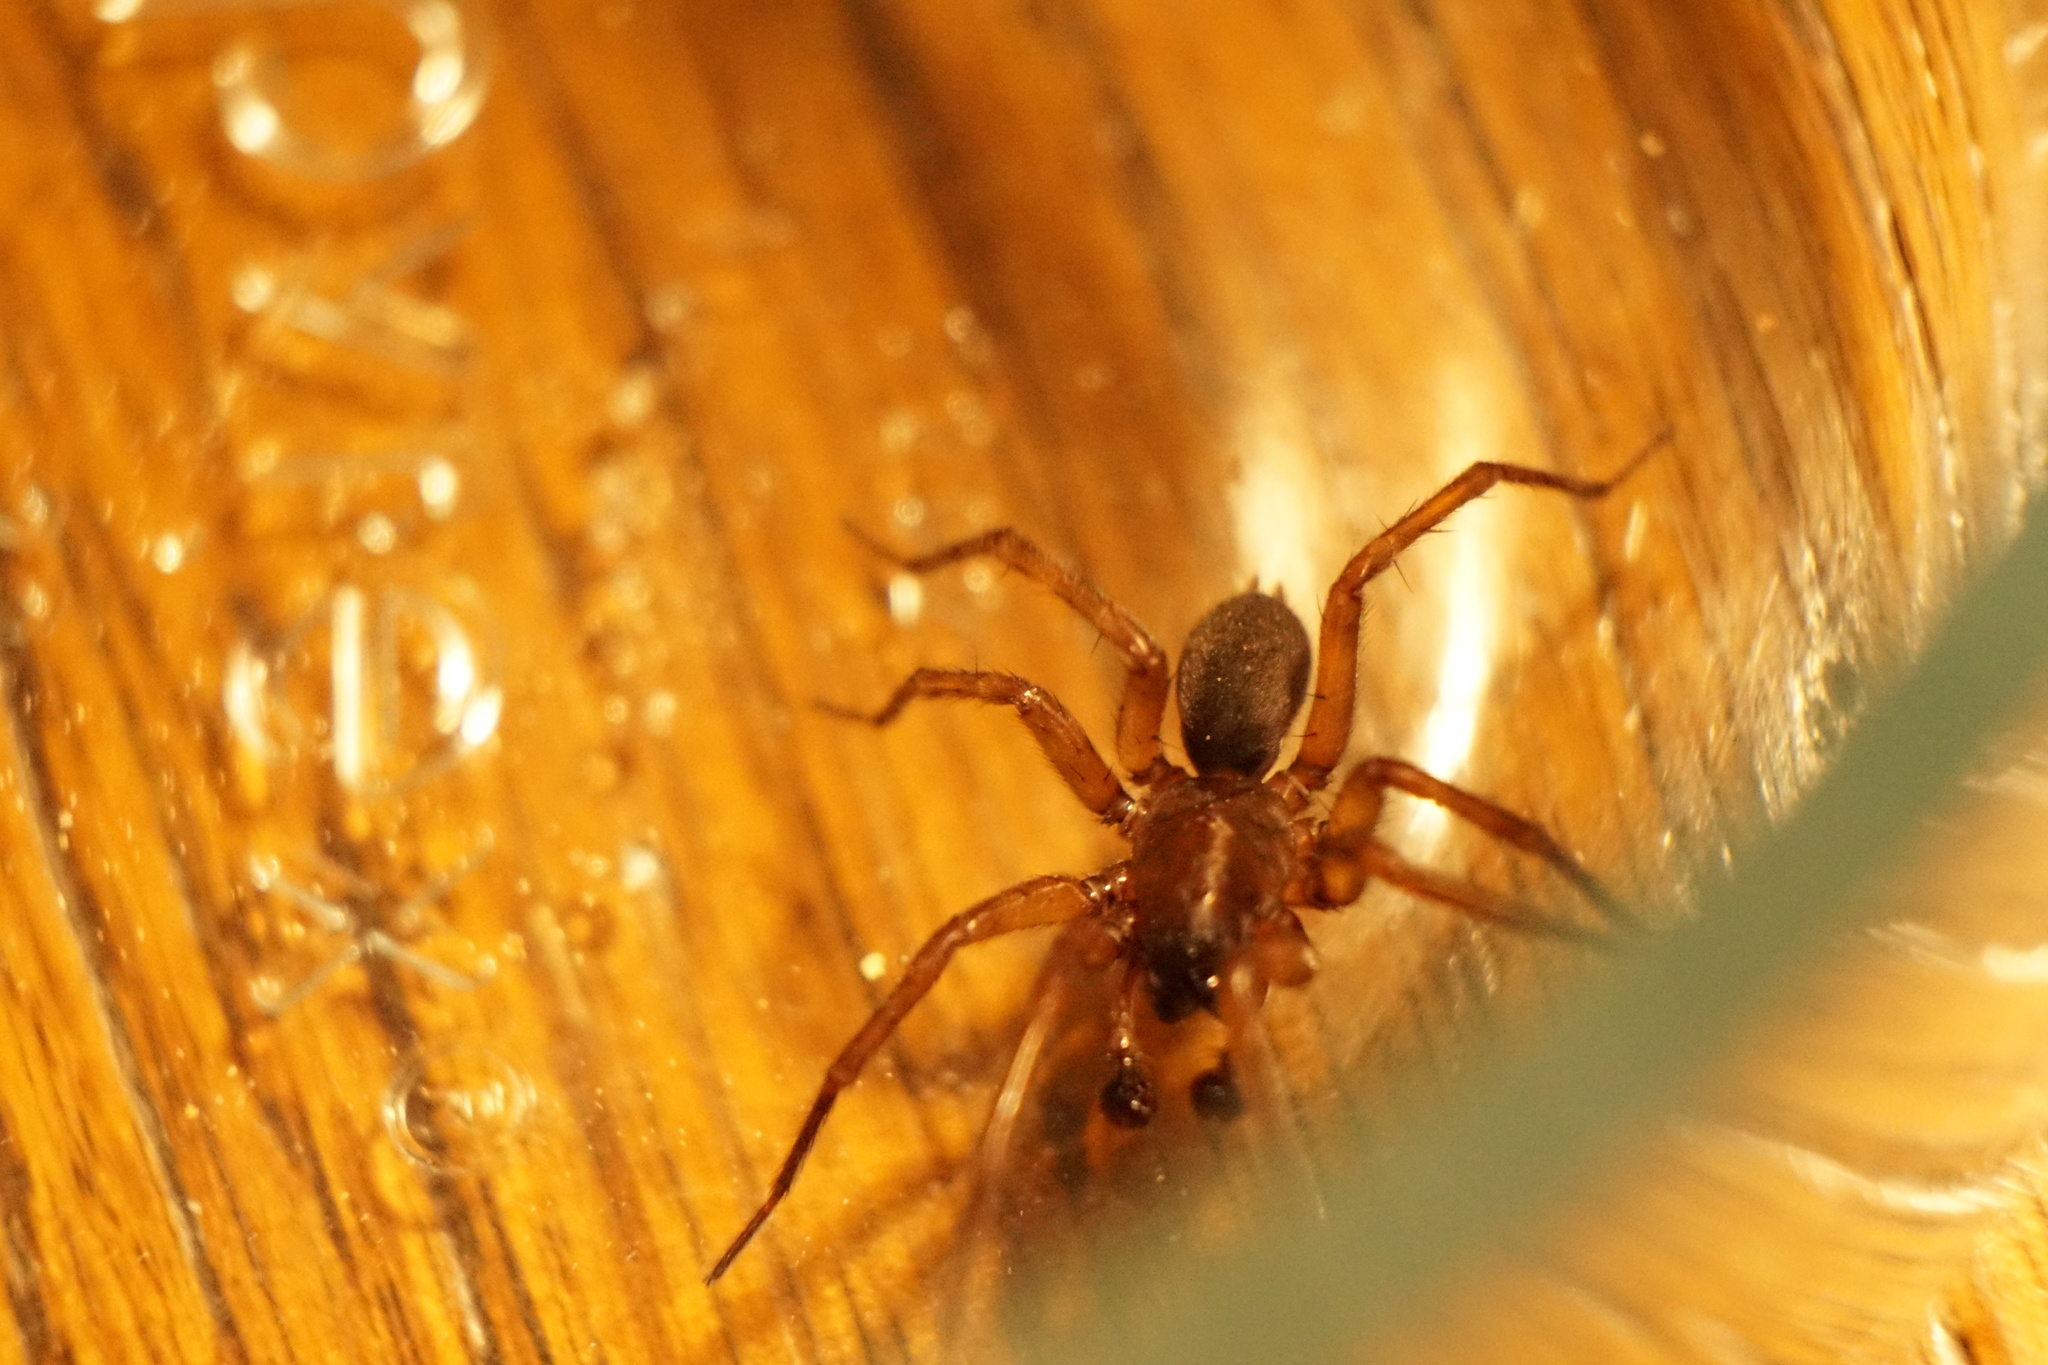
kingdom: Animalia
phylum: Arthropoda
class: Arachnida
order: Araneae
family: Agelenidae
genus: Wadotes
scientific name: Wadotes
